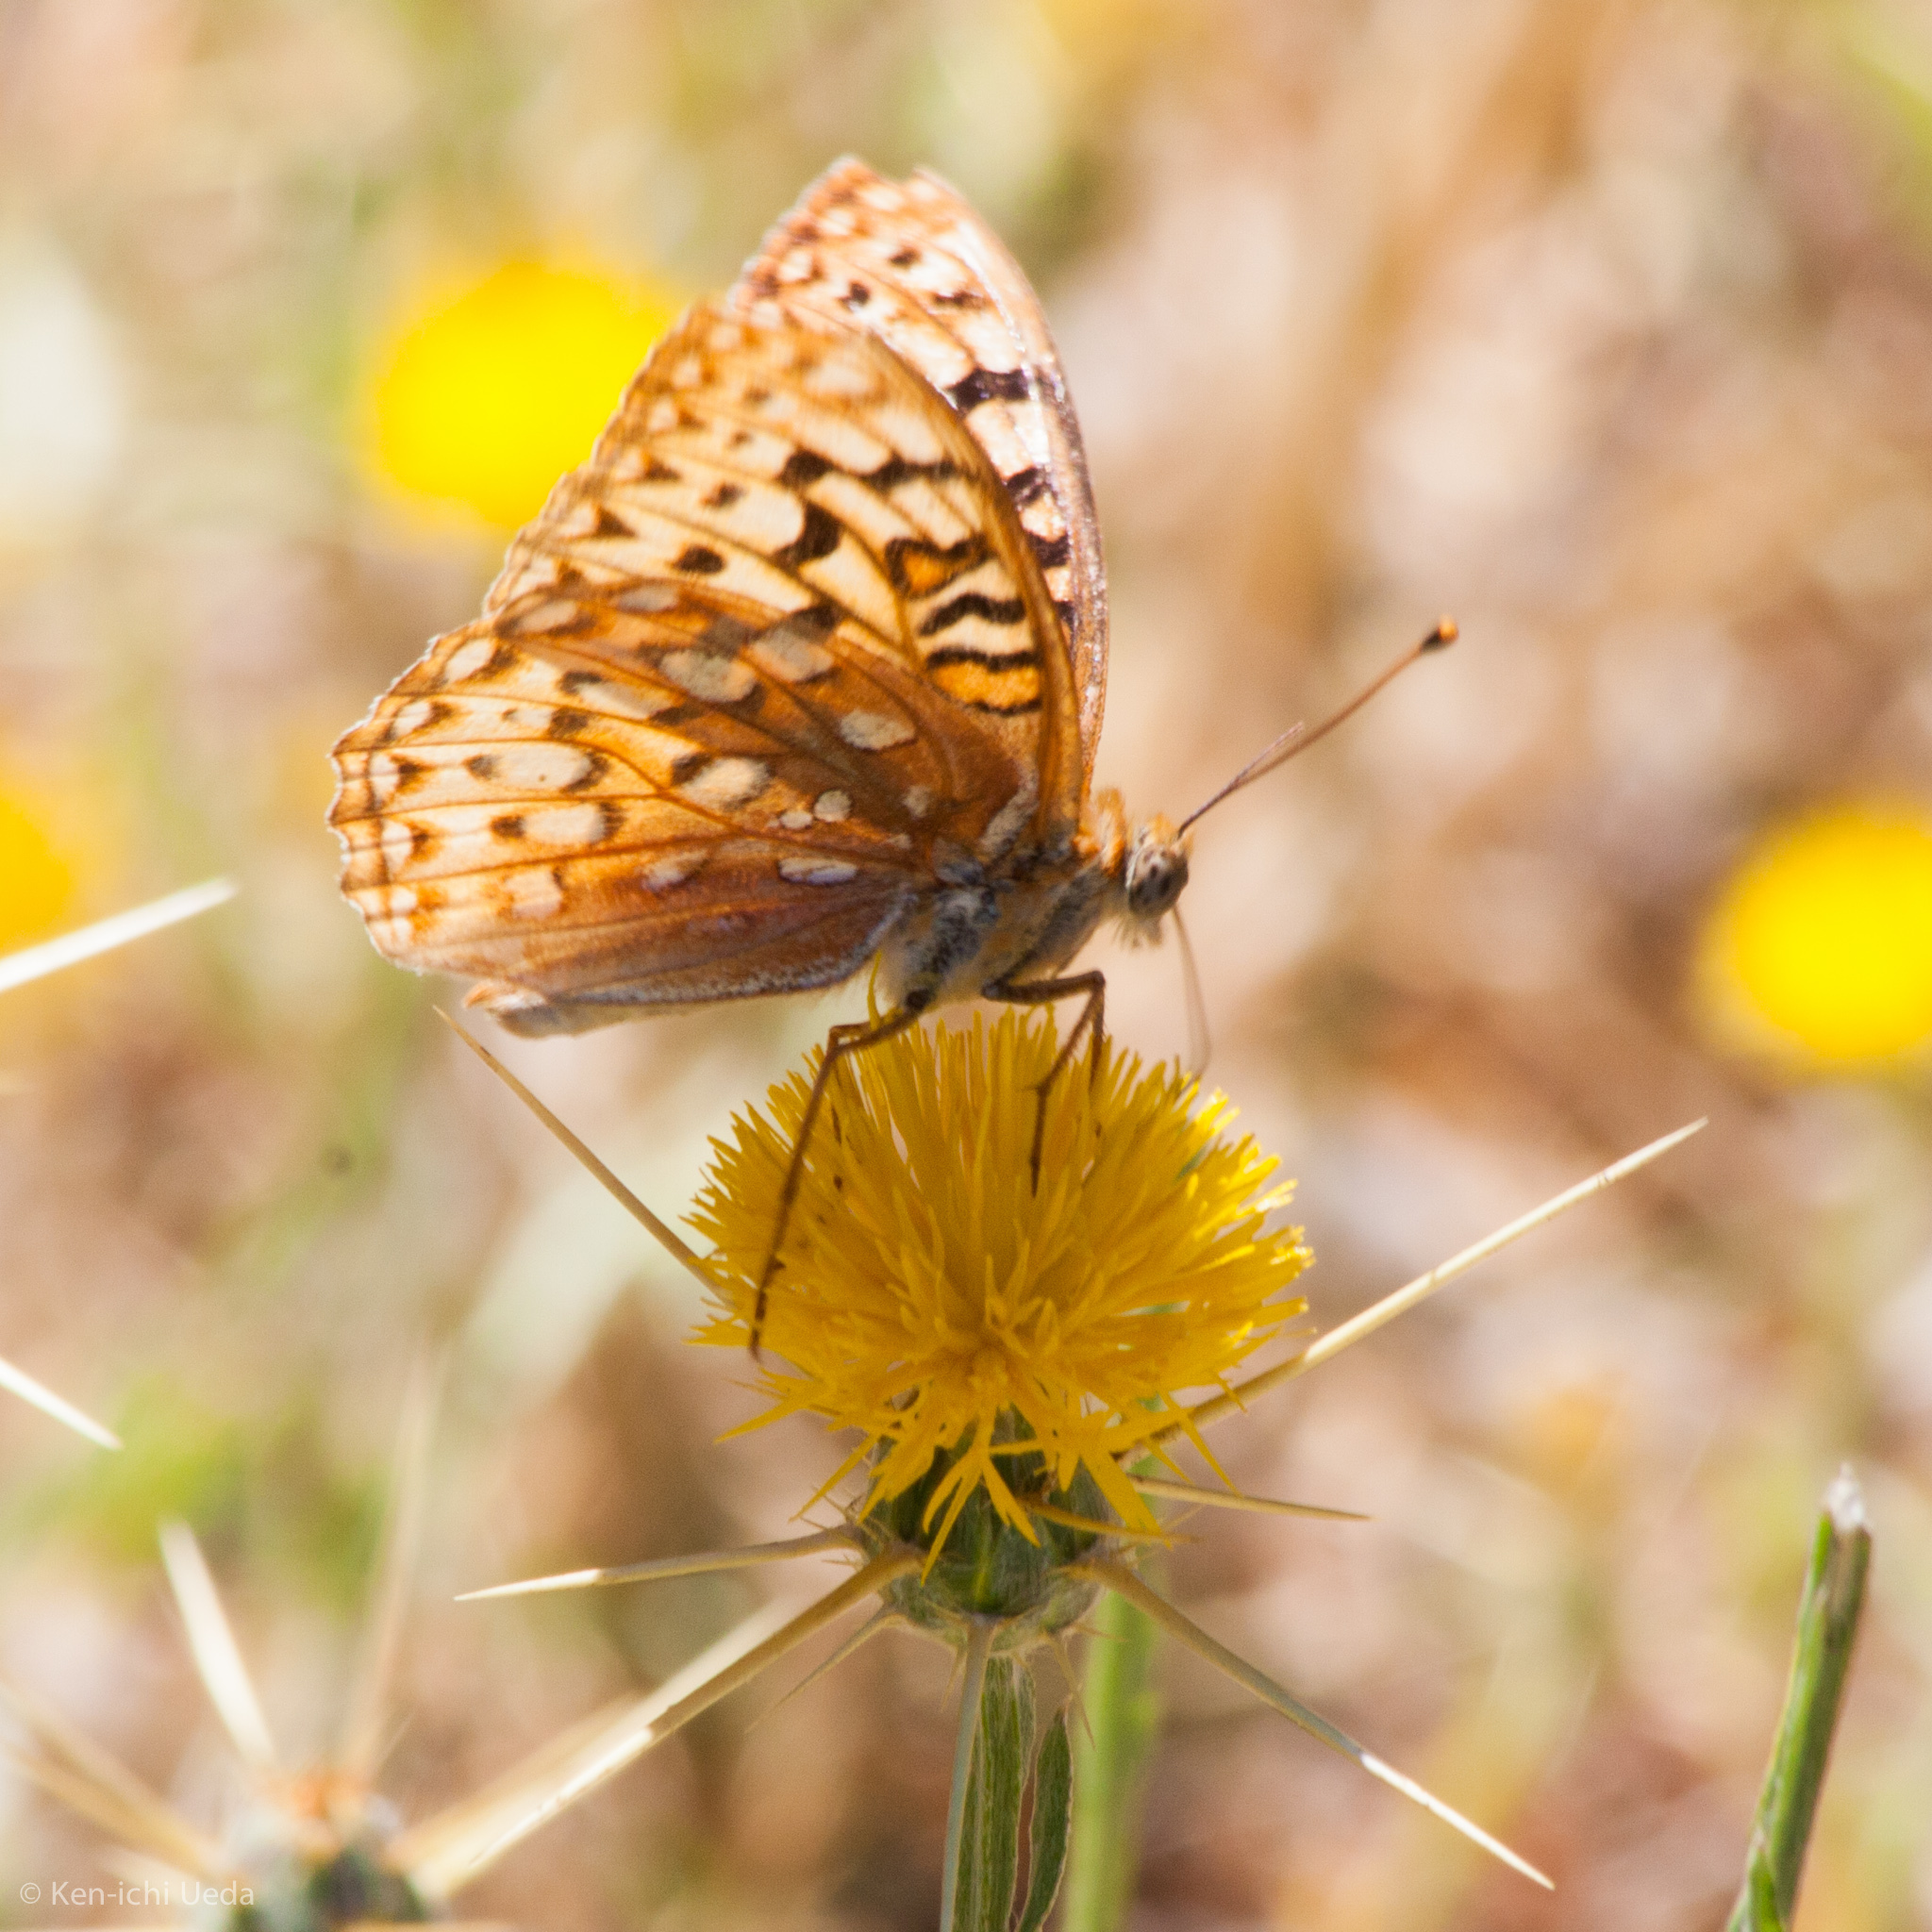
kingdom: Animalia
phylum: Arthropoda
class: Insecta
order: Lepidoptera
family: Nymphalidae
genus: Argynnis
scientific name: Argynnis coronis
